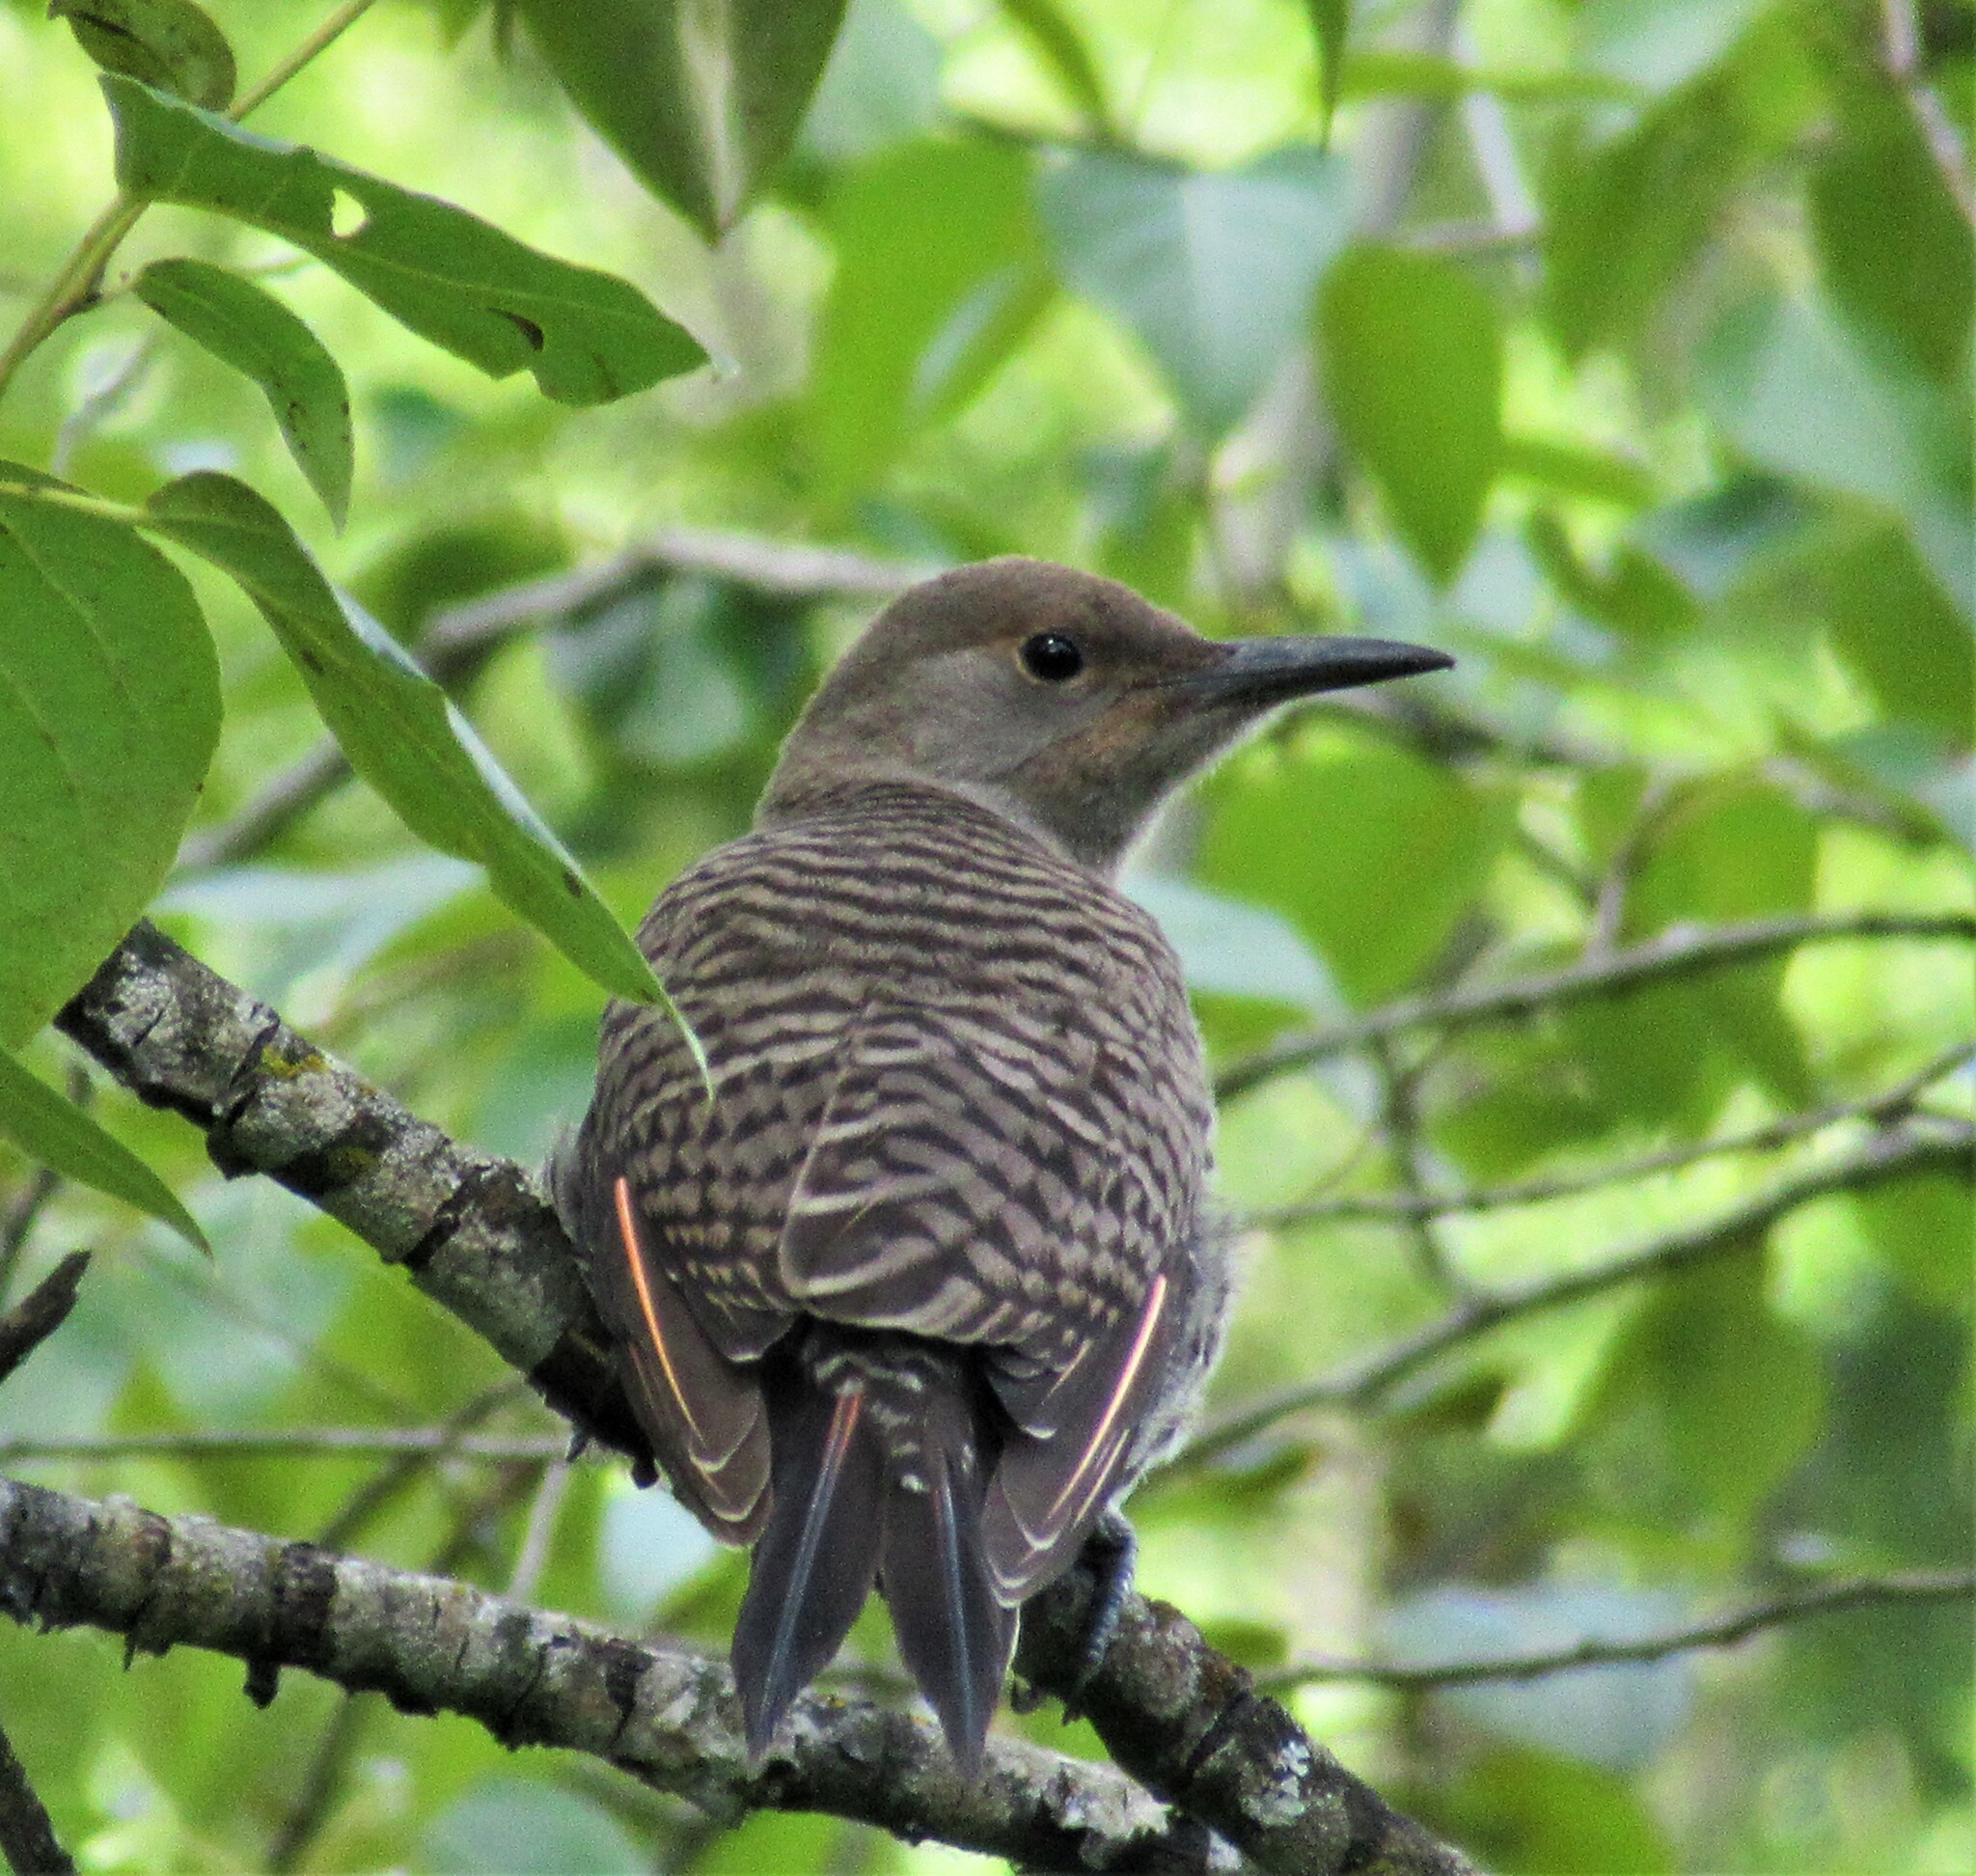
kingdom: Animalia
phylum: Chordata
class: Aves
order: Piciformes
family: Picidae
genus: Colaptes
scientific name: Colaptes auratus
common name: Northern flicker
